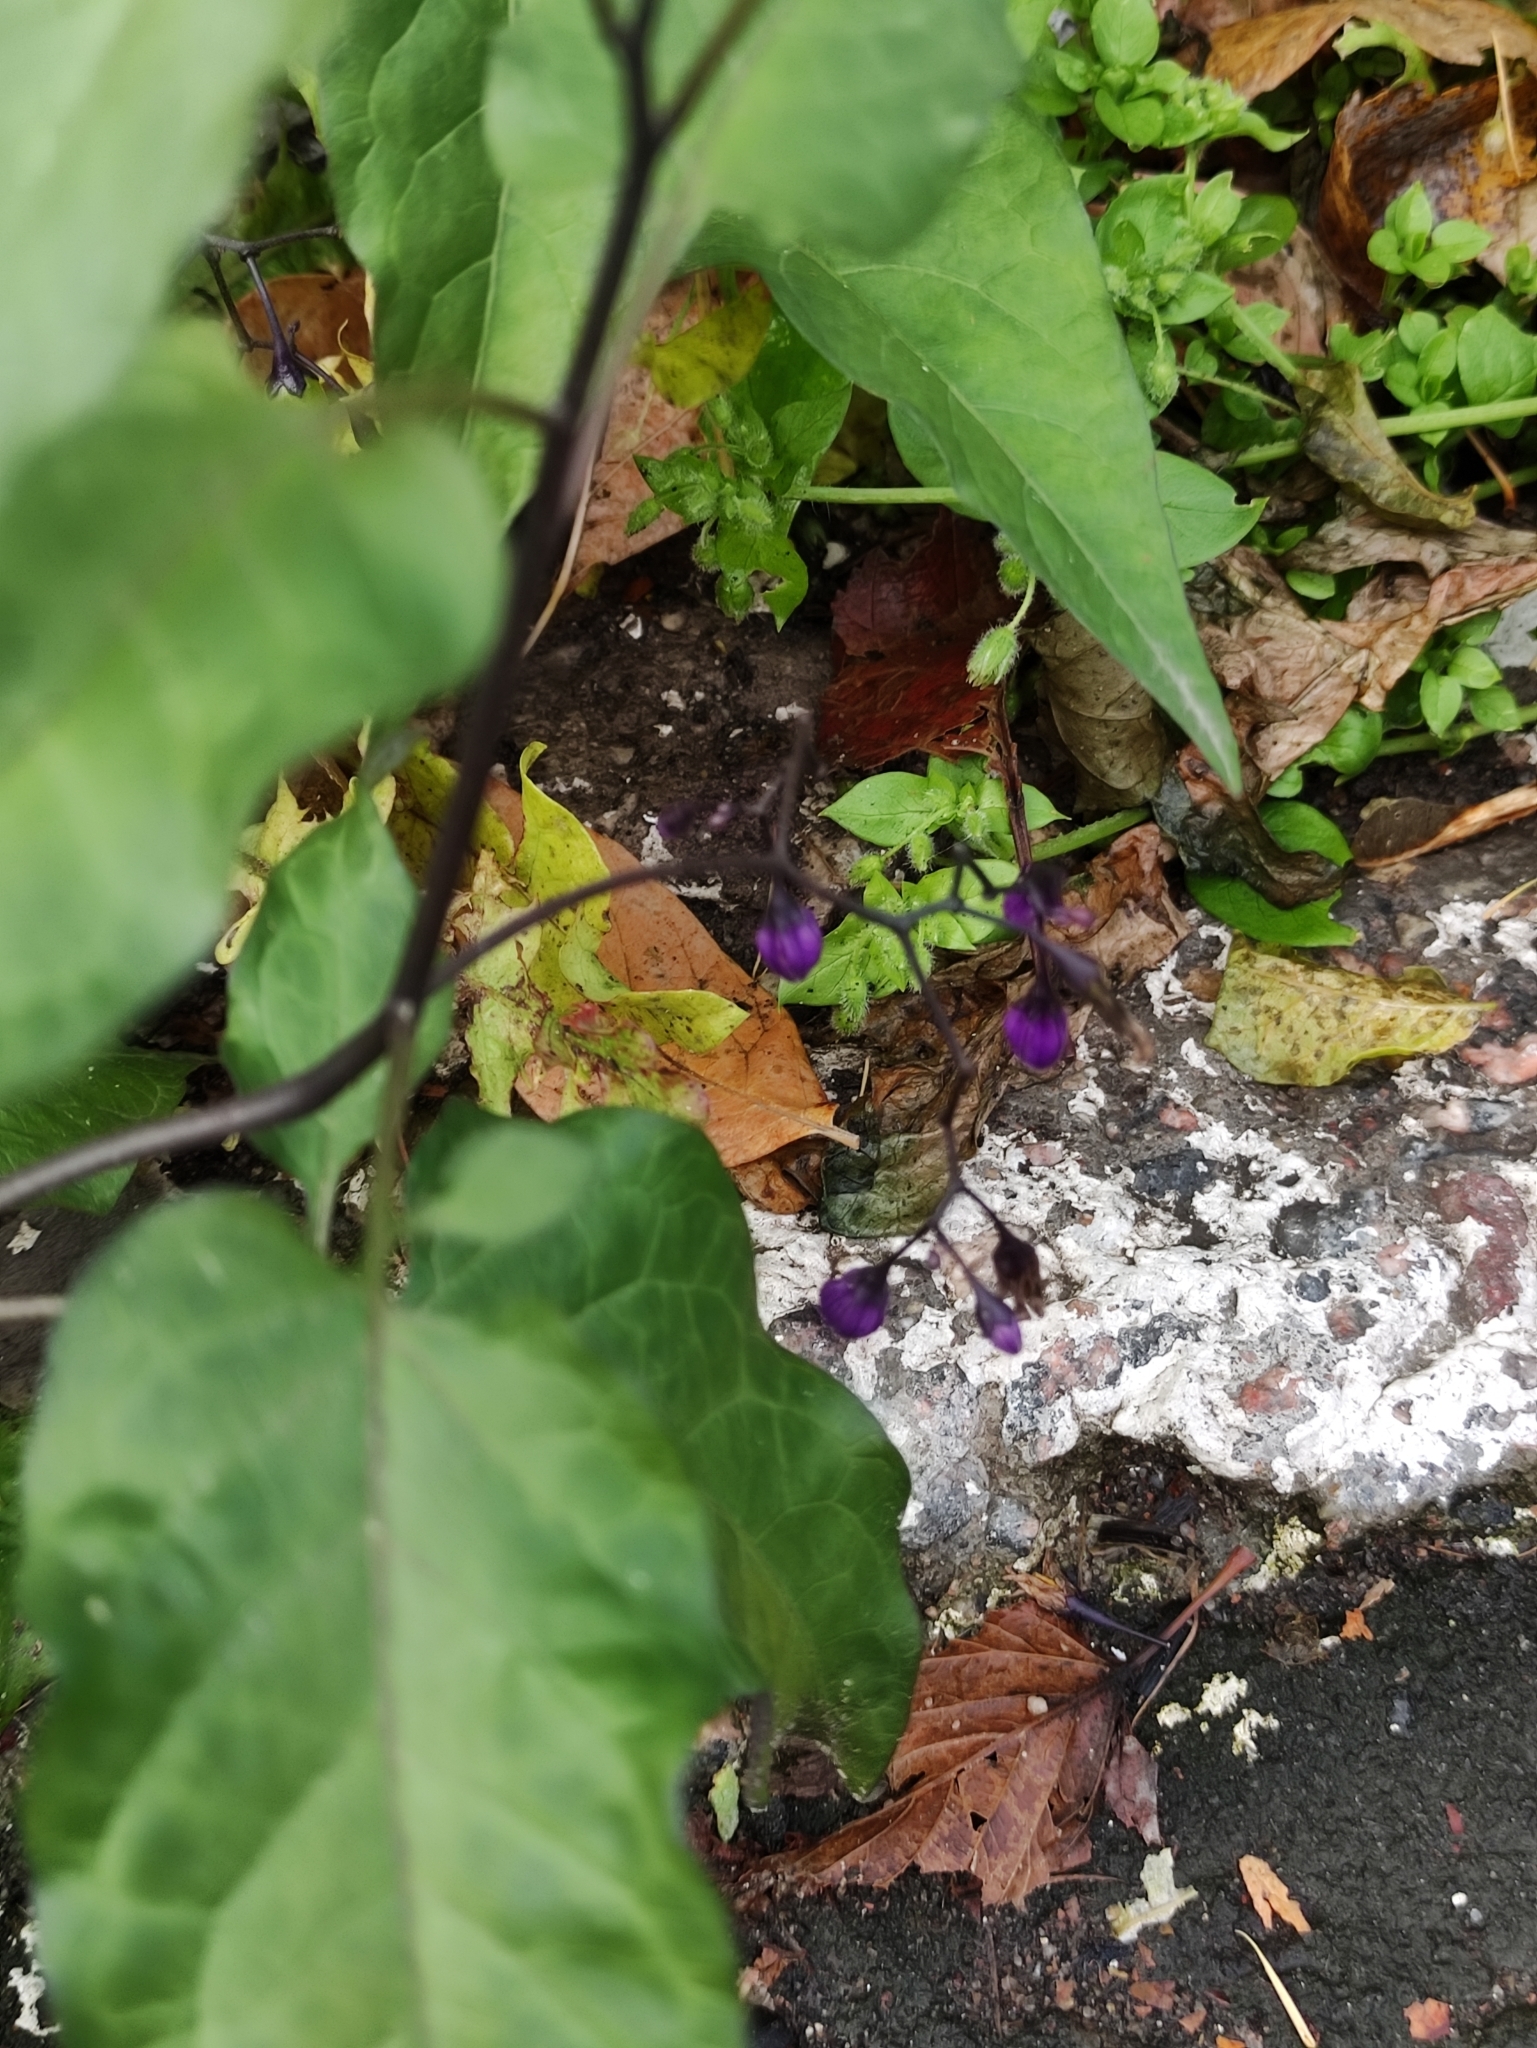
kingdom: Plantae
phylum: Tracheophyta
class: Magnoliopsida
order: Solanales
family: Solanaceae
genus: Solanum
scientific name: Solanum dulcamara
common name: Climbing nightshade
